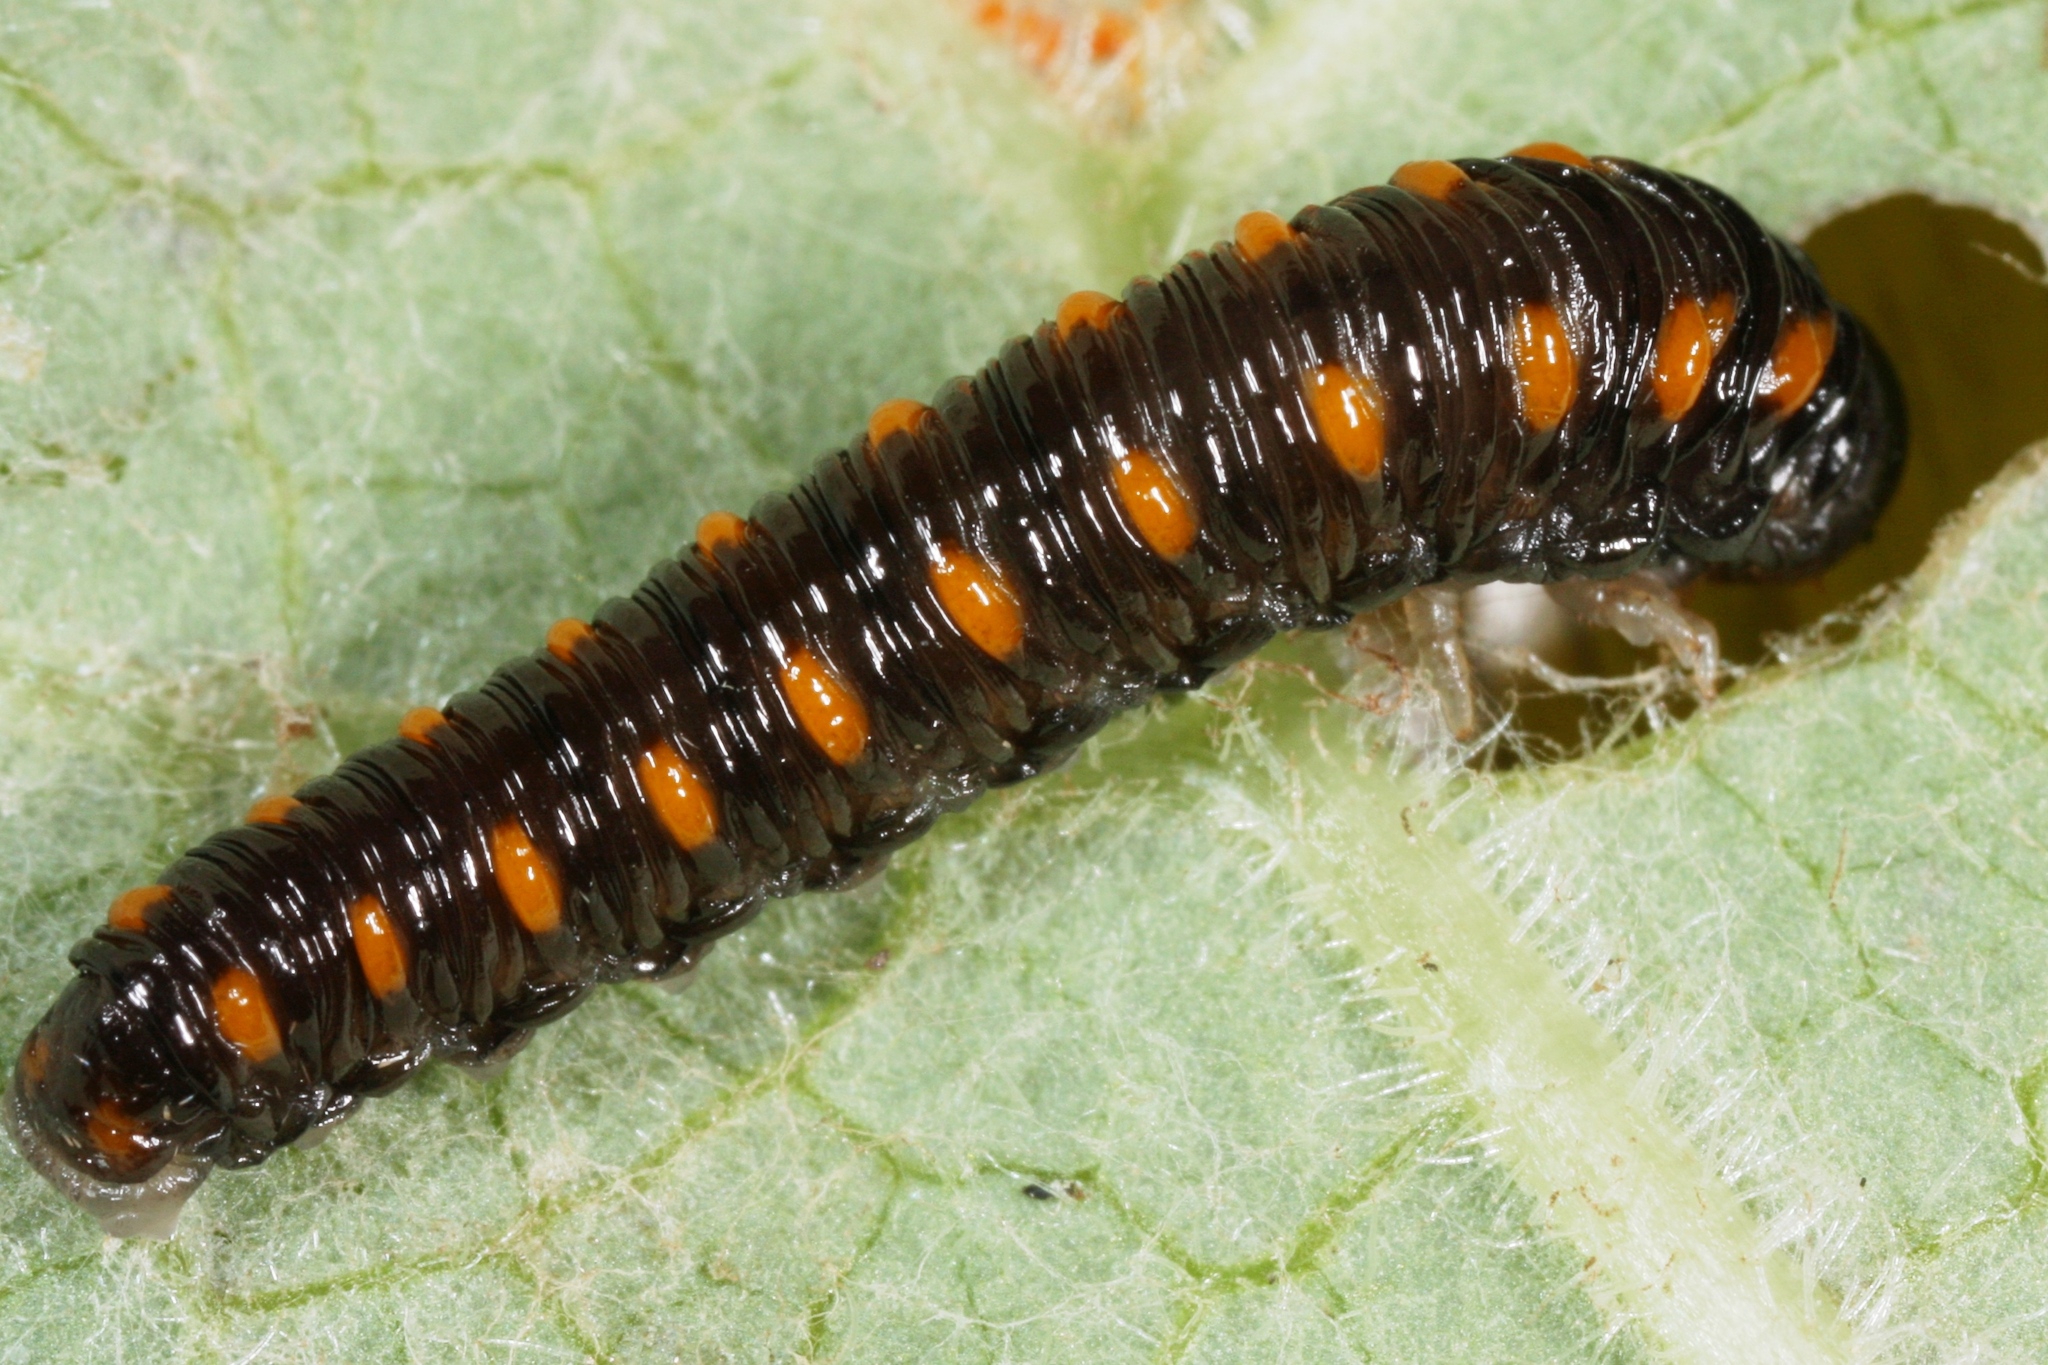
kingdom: Animalia
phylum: Arthropoda
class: Insecta
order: Hymenoptera
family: Tenthredinidae
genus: Tenthredo
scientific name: Tenthredo mandibularis
